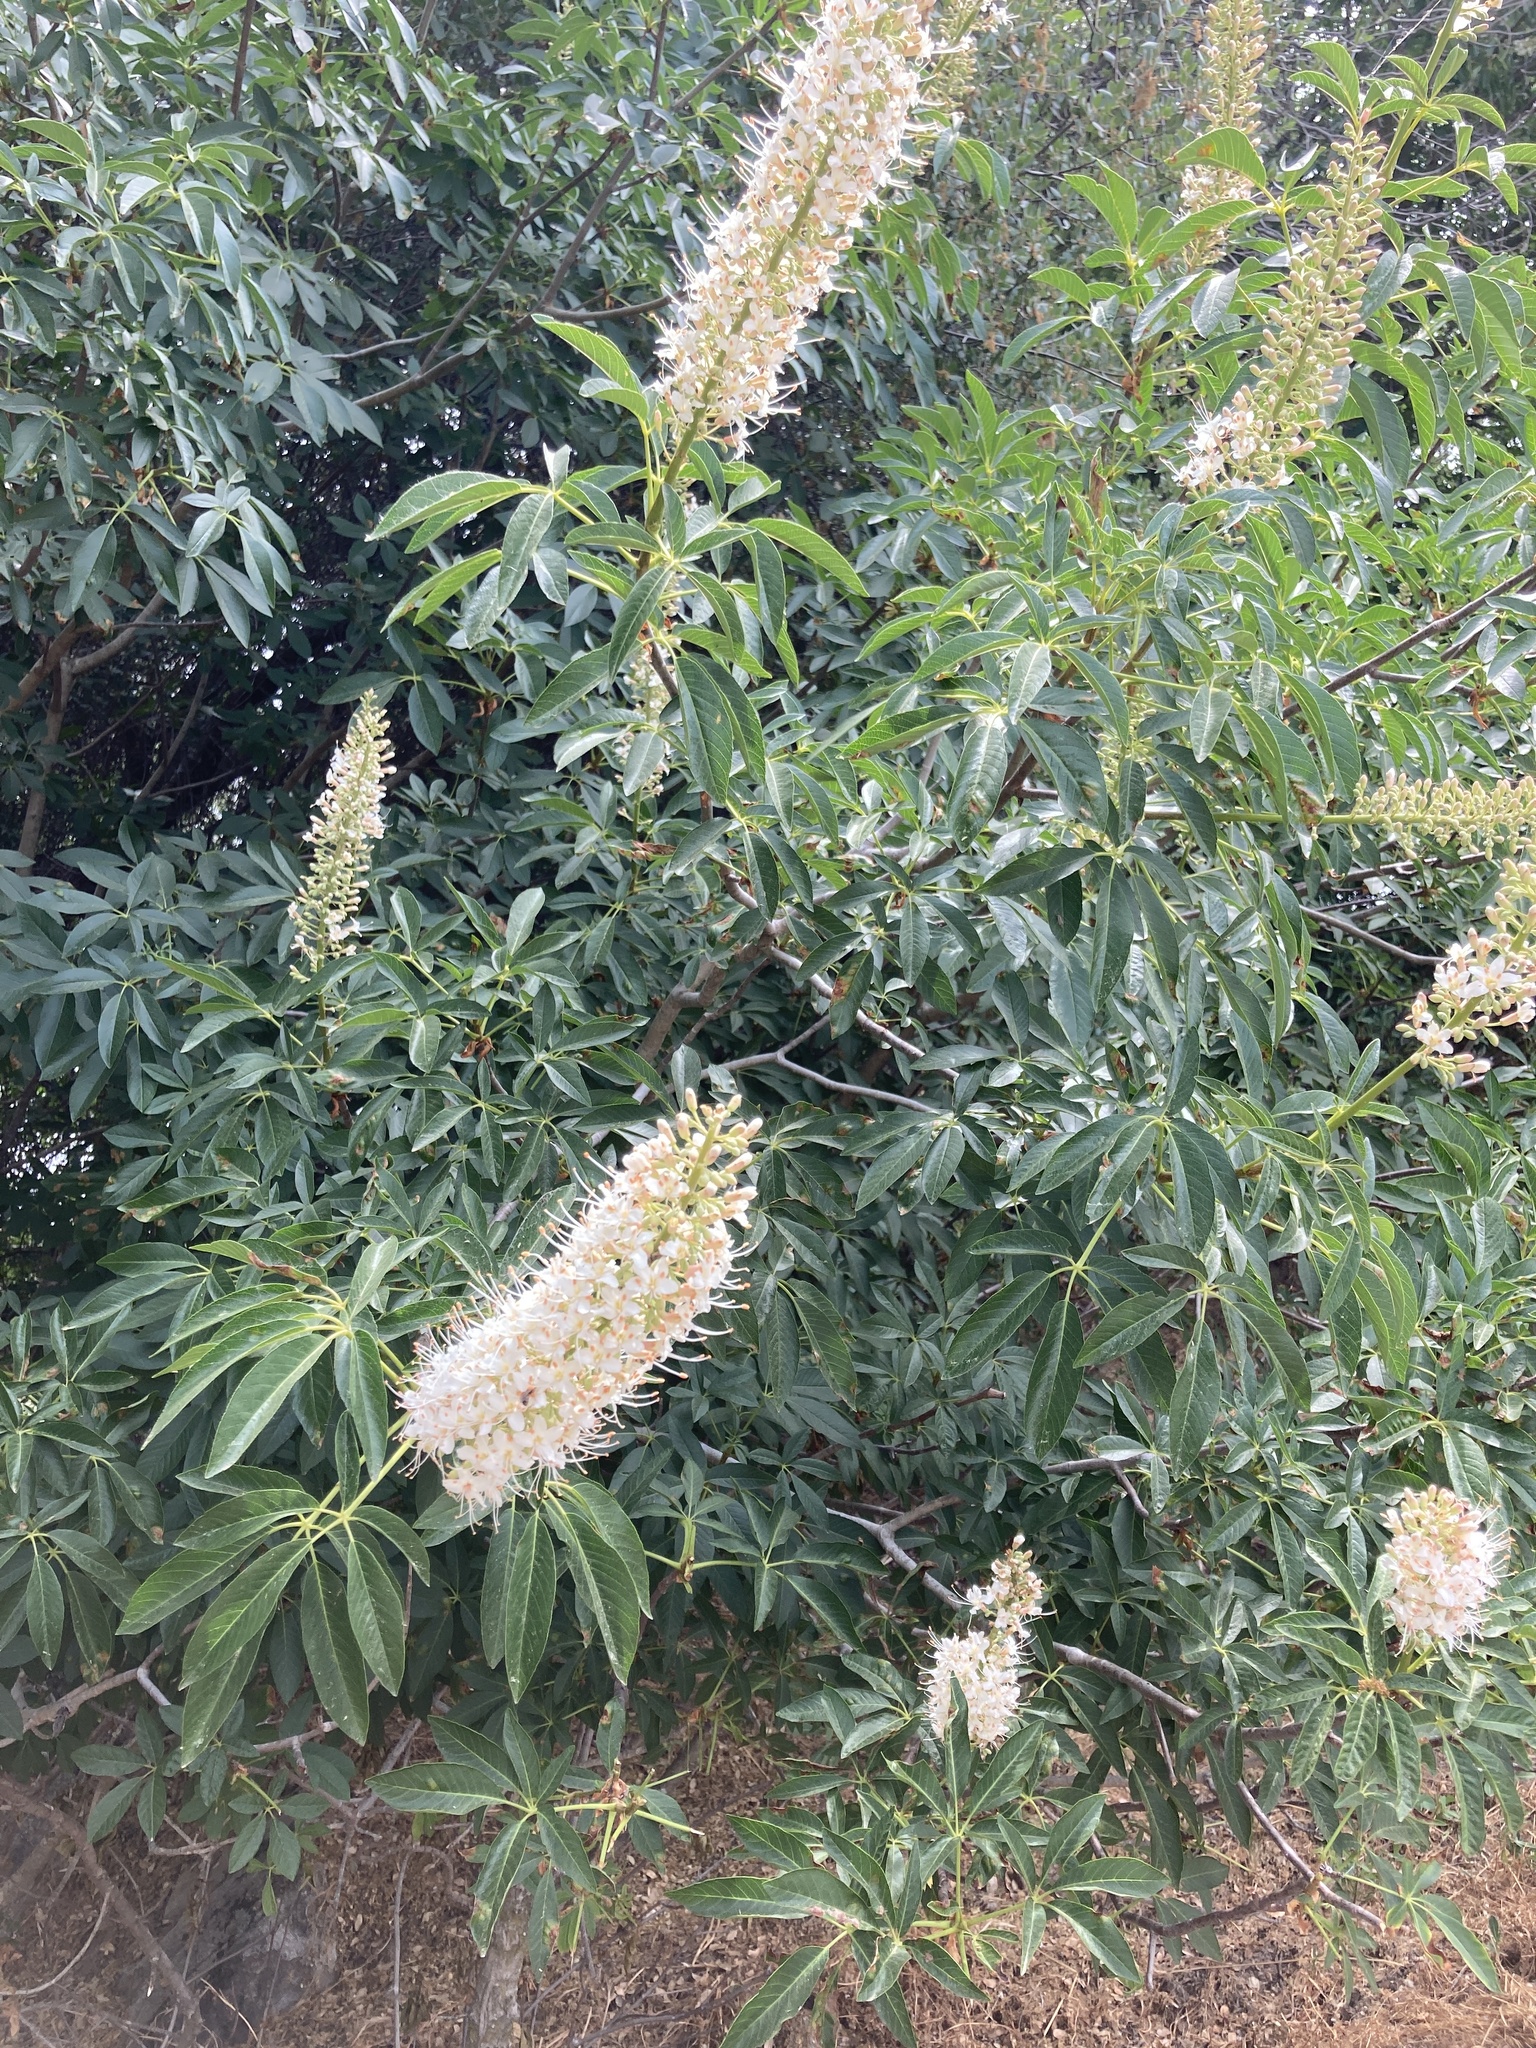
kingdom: Plantae
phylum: Tracheophyta
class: Magnoliopsida
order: Sapindales
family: Sapindaceae
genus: Aesculus
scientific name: Aesculus californica
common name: California buckeye
